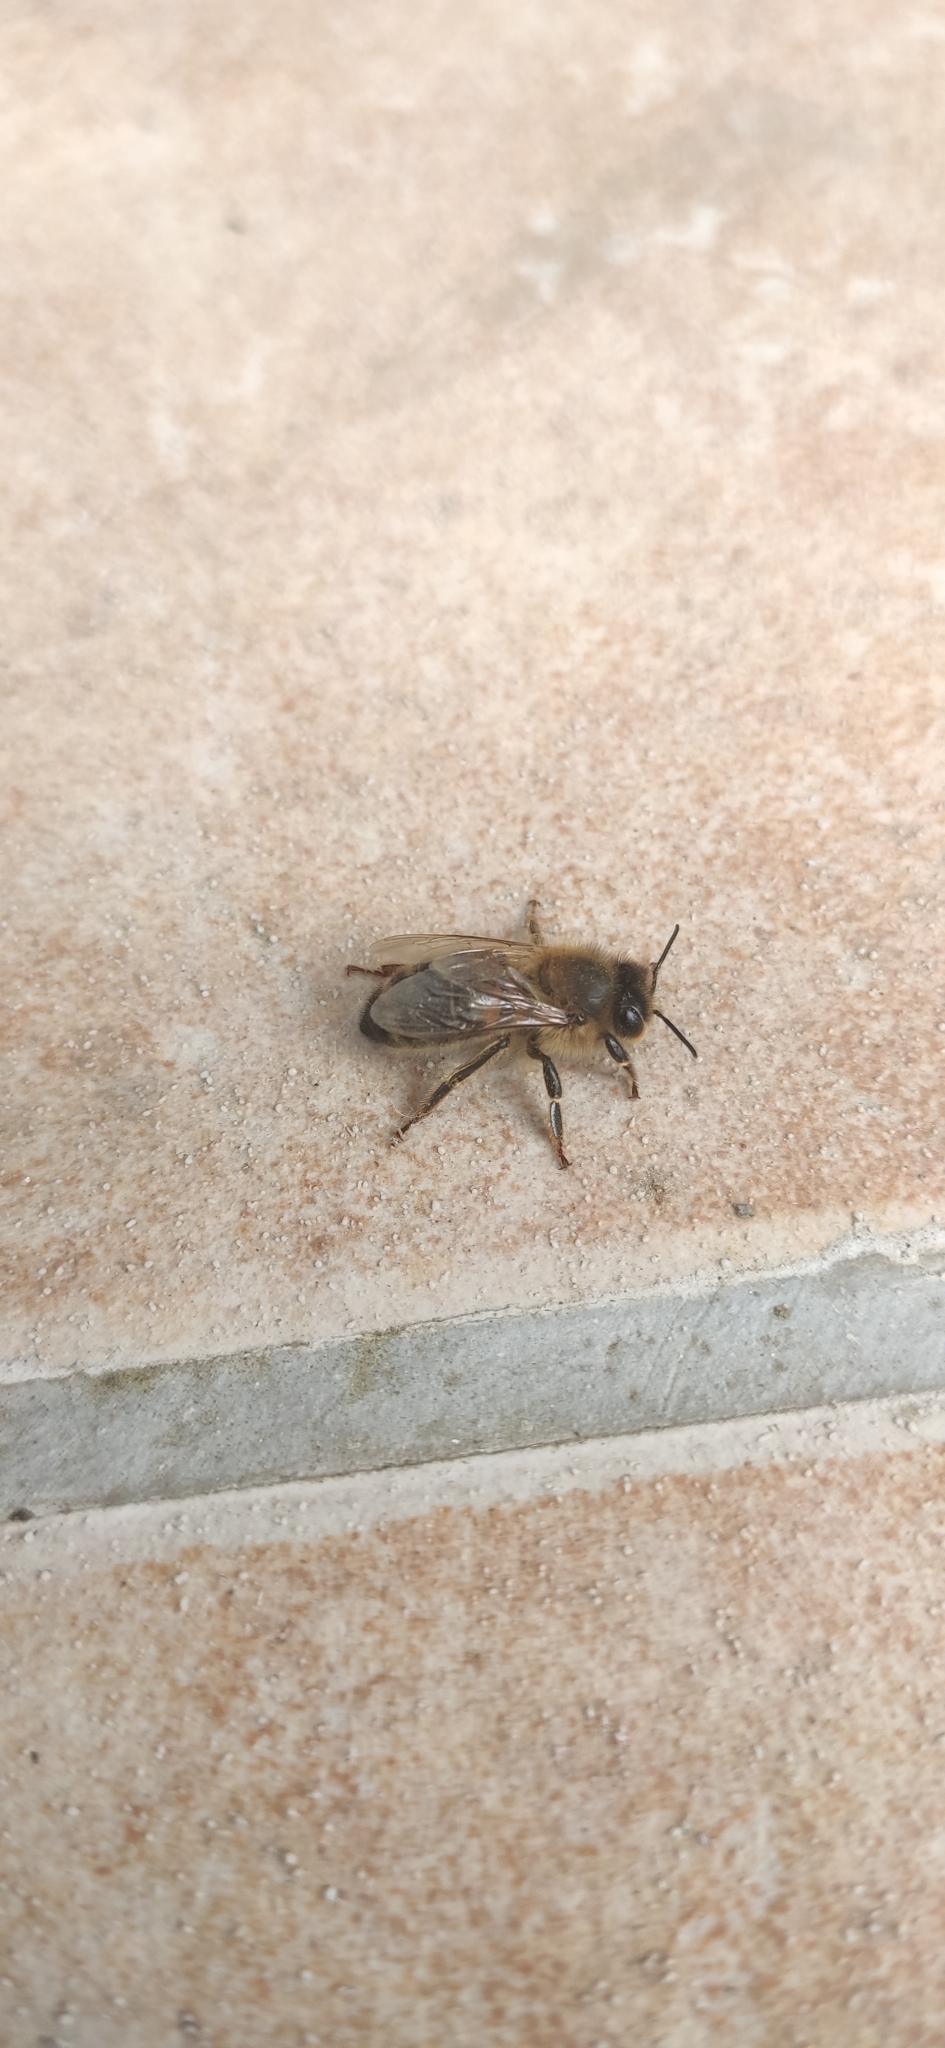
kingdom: Animalia
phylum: Arthropoda
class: Insecta
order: Hymenoptera
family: Apidae
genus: Apis
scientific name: Apis mellifera
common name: Honey bee
